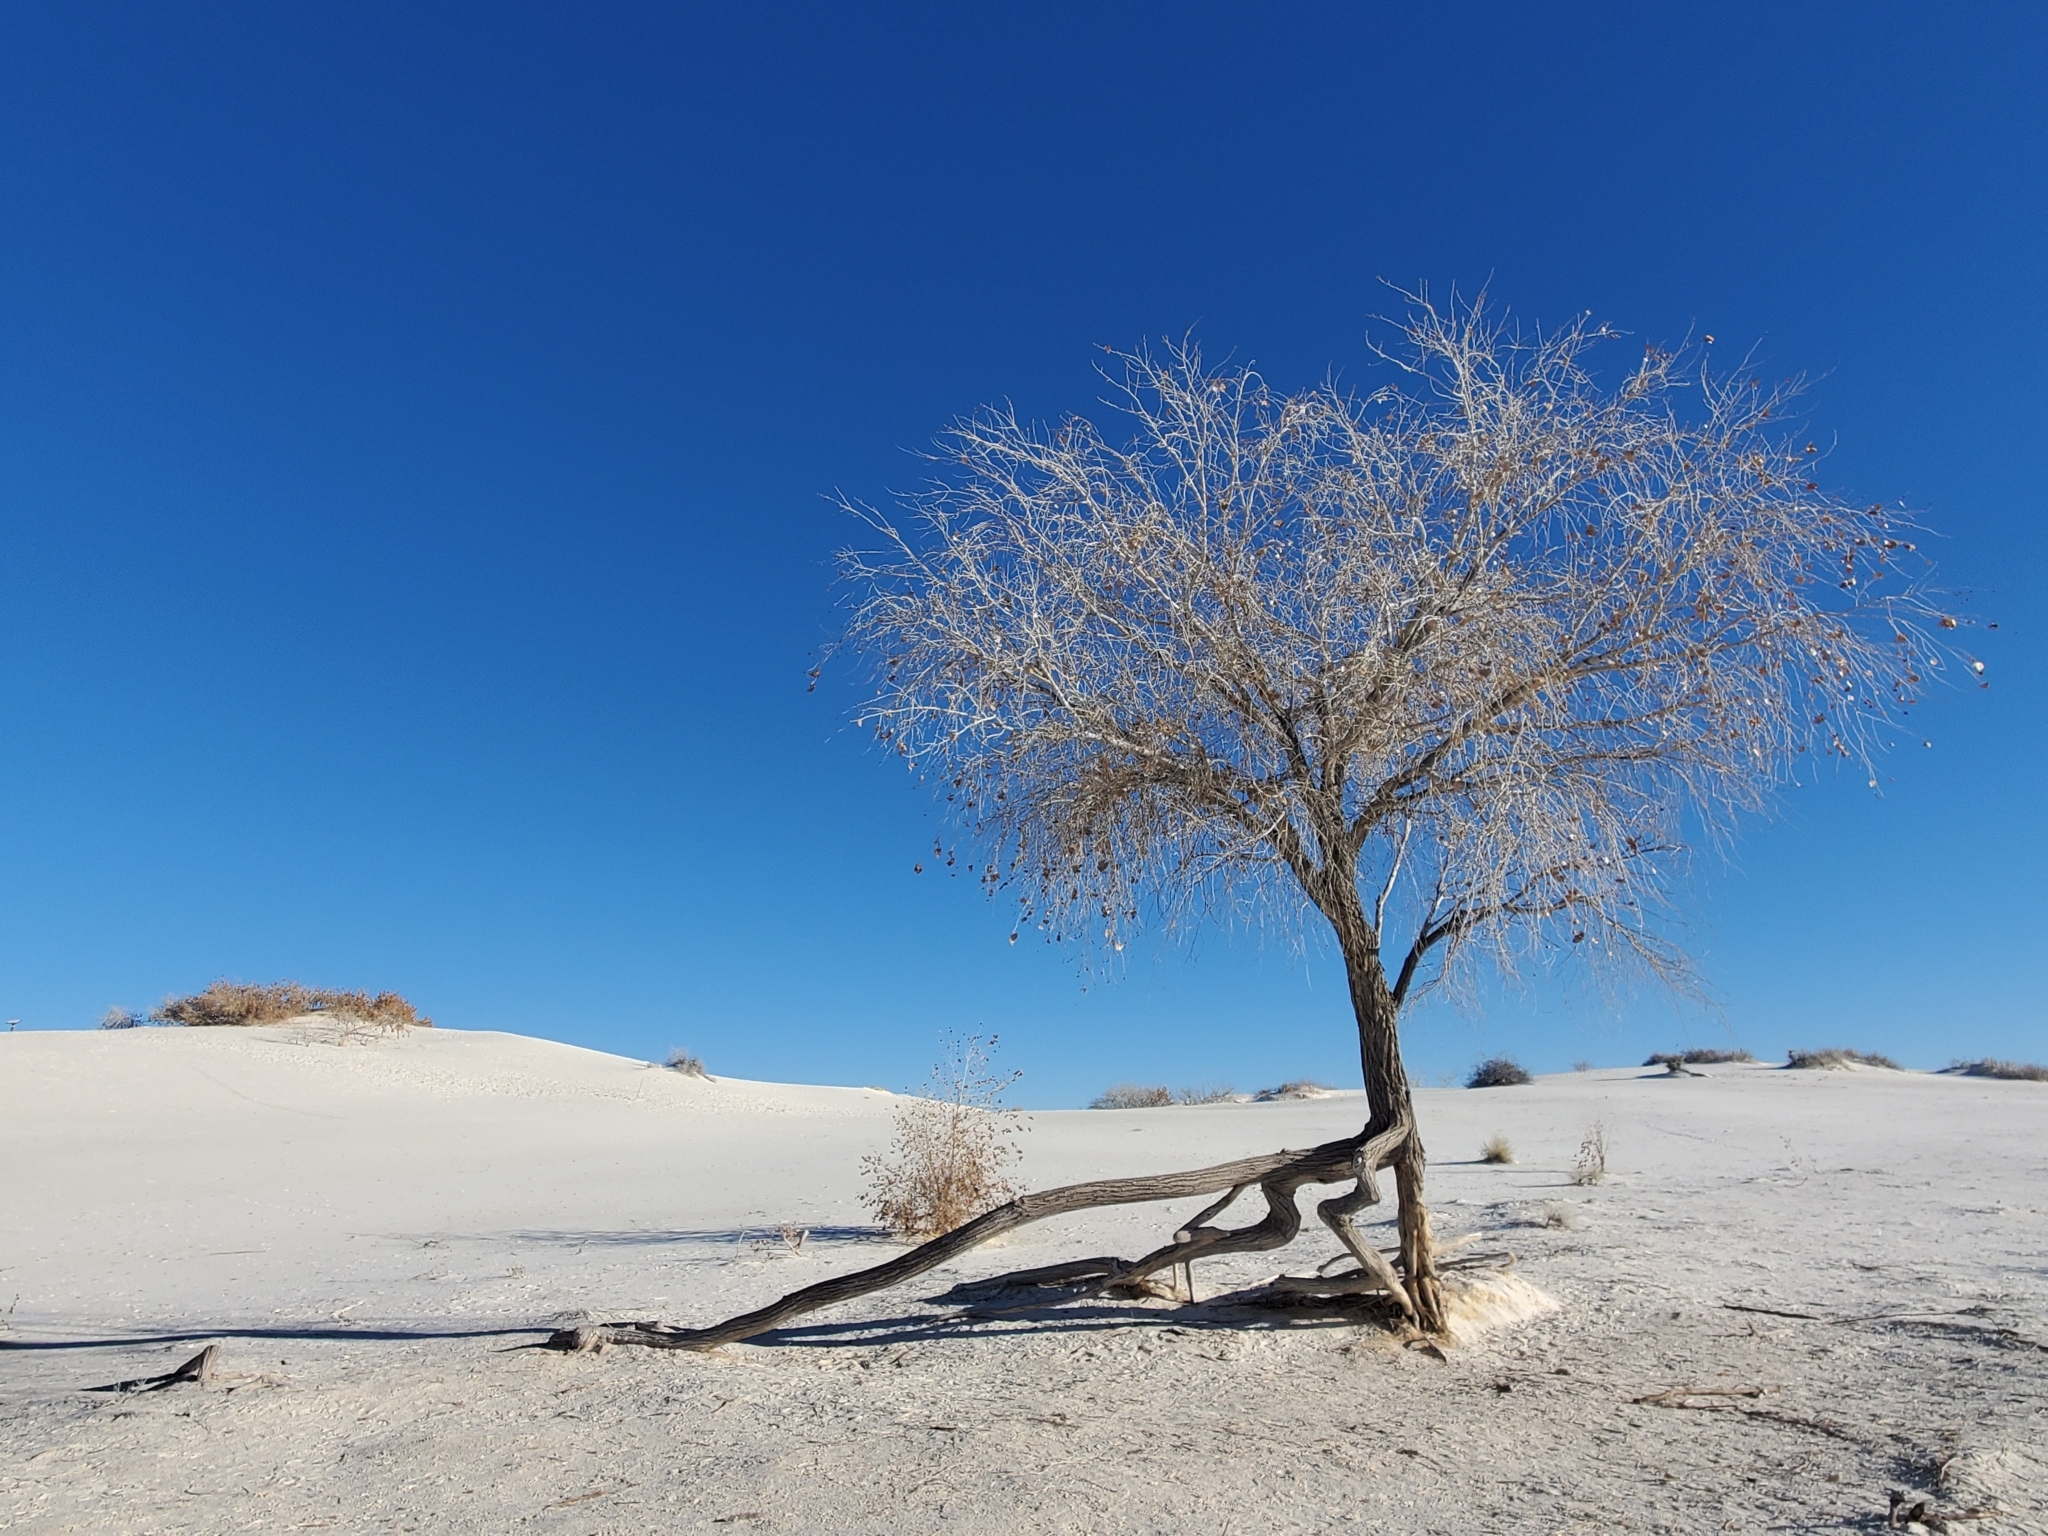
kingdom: Plantae
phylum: Tracheophyta
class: Magnoliopsida
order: Malpighiales
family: Salicaceae
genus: Populus
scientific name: Populus deltoides
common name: Eastern cottonwood
